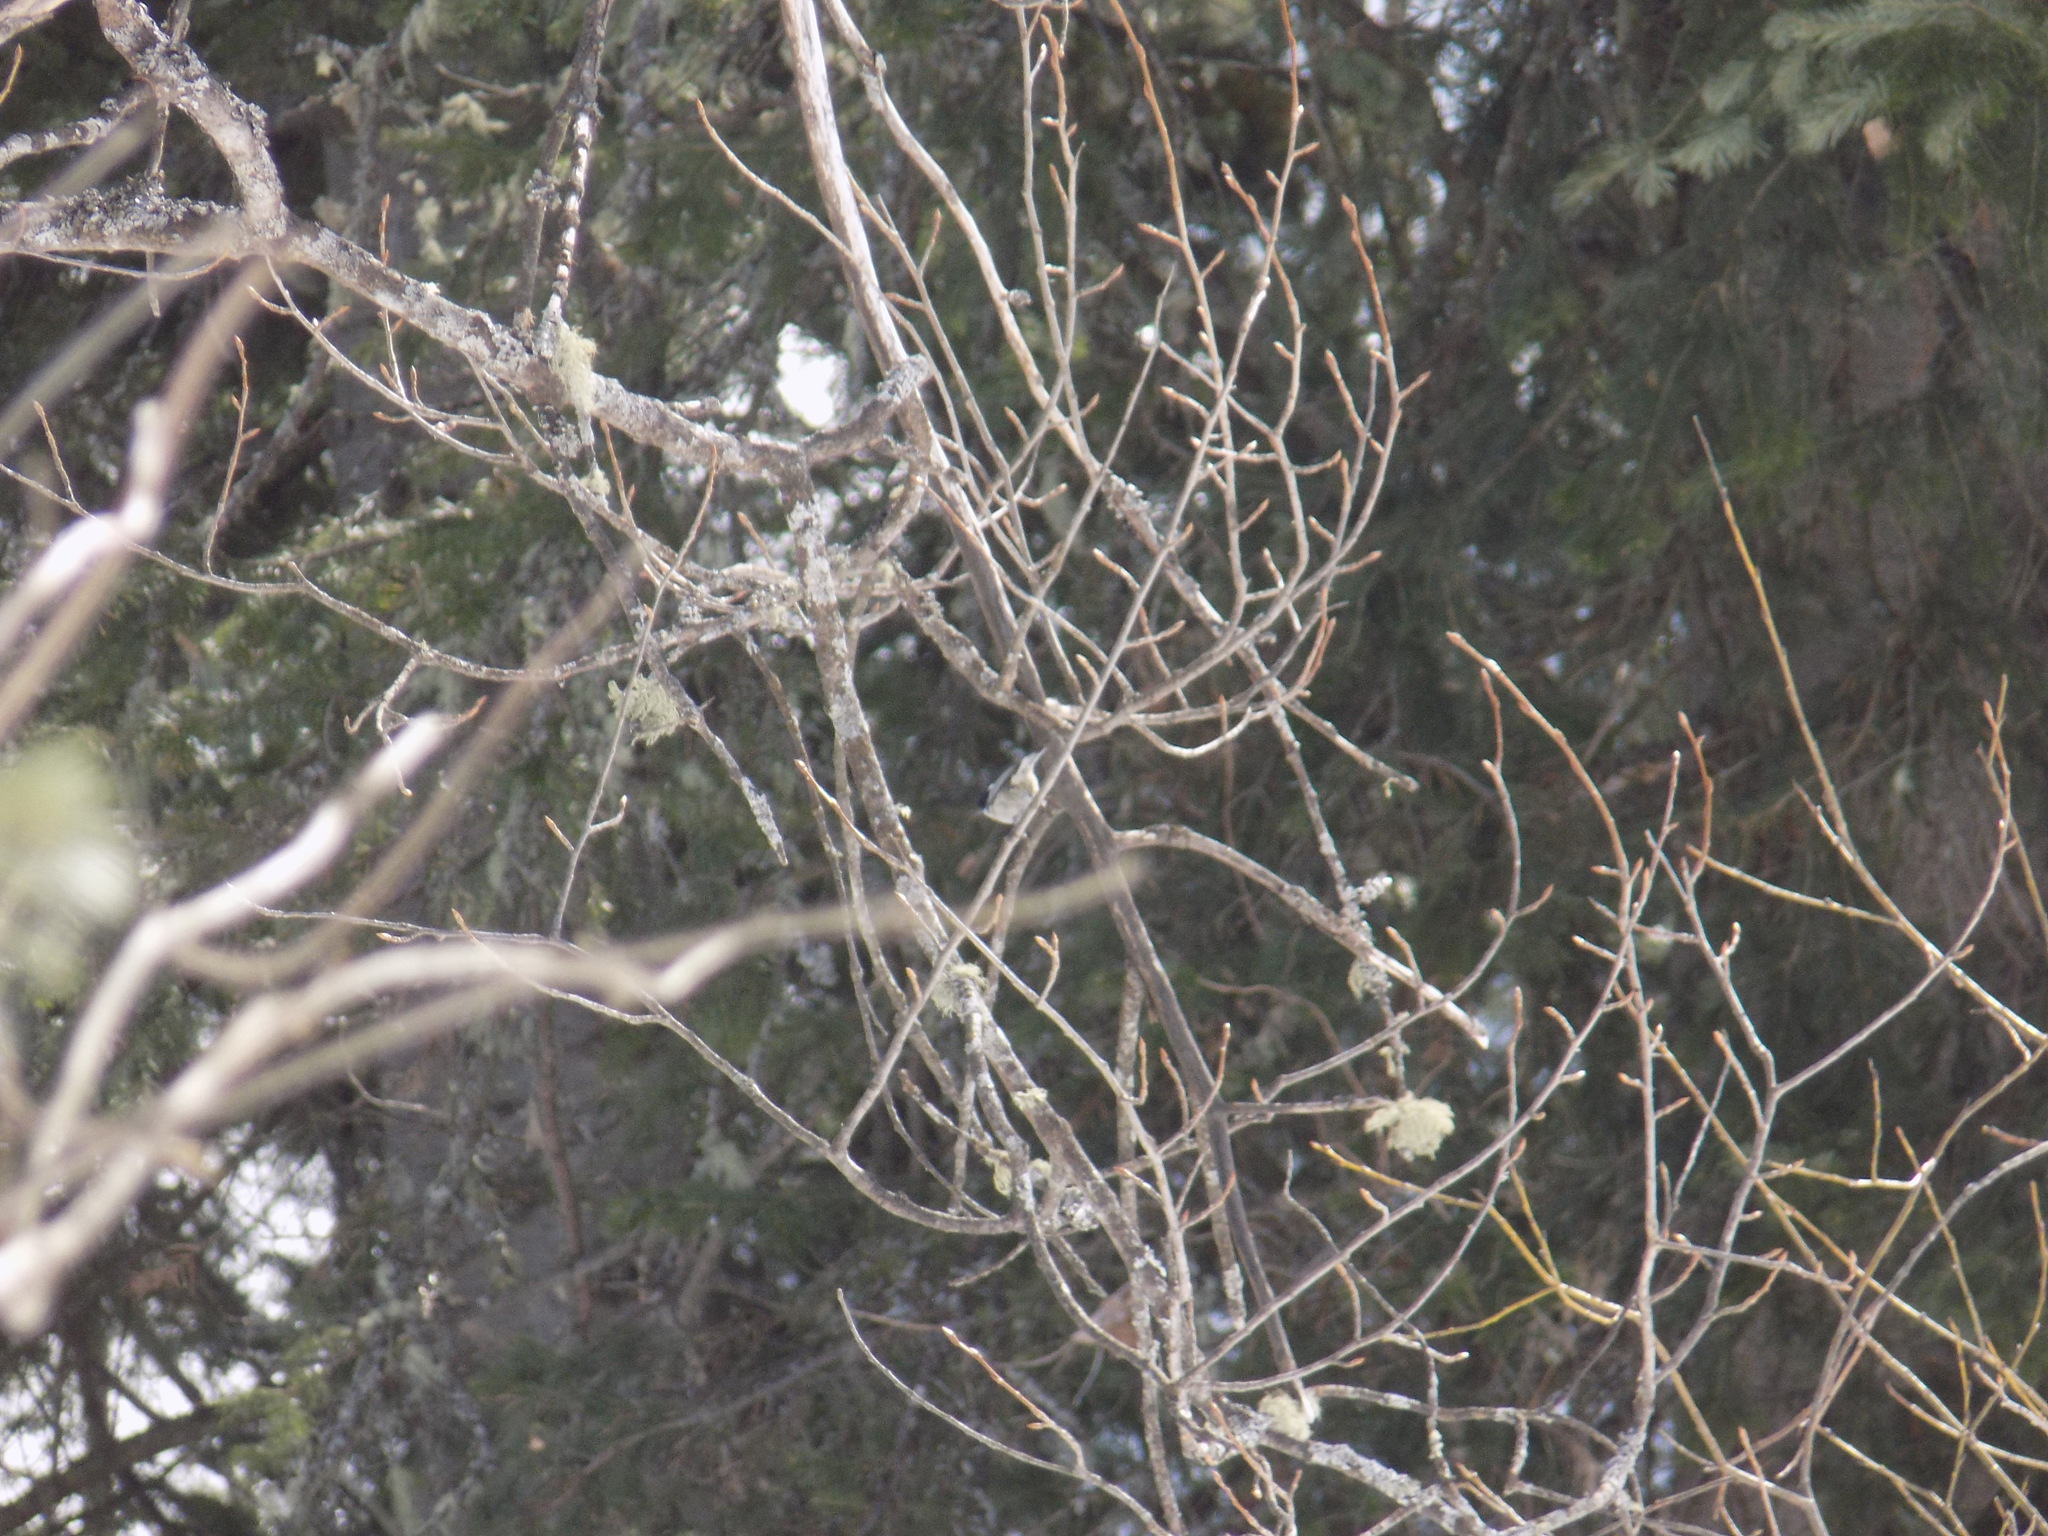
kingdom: Animalia
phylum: Chordata
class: Aves
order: Passeriformes
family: Paridae
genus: Periparus
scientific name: Periparus ater
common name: Coal tit
